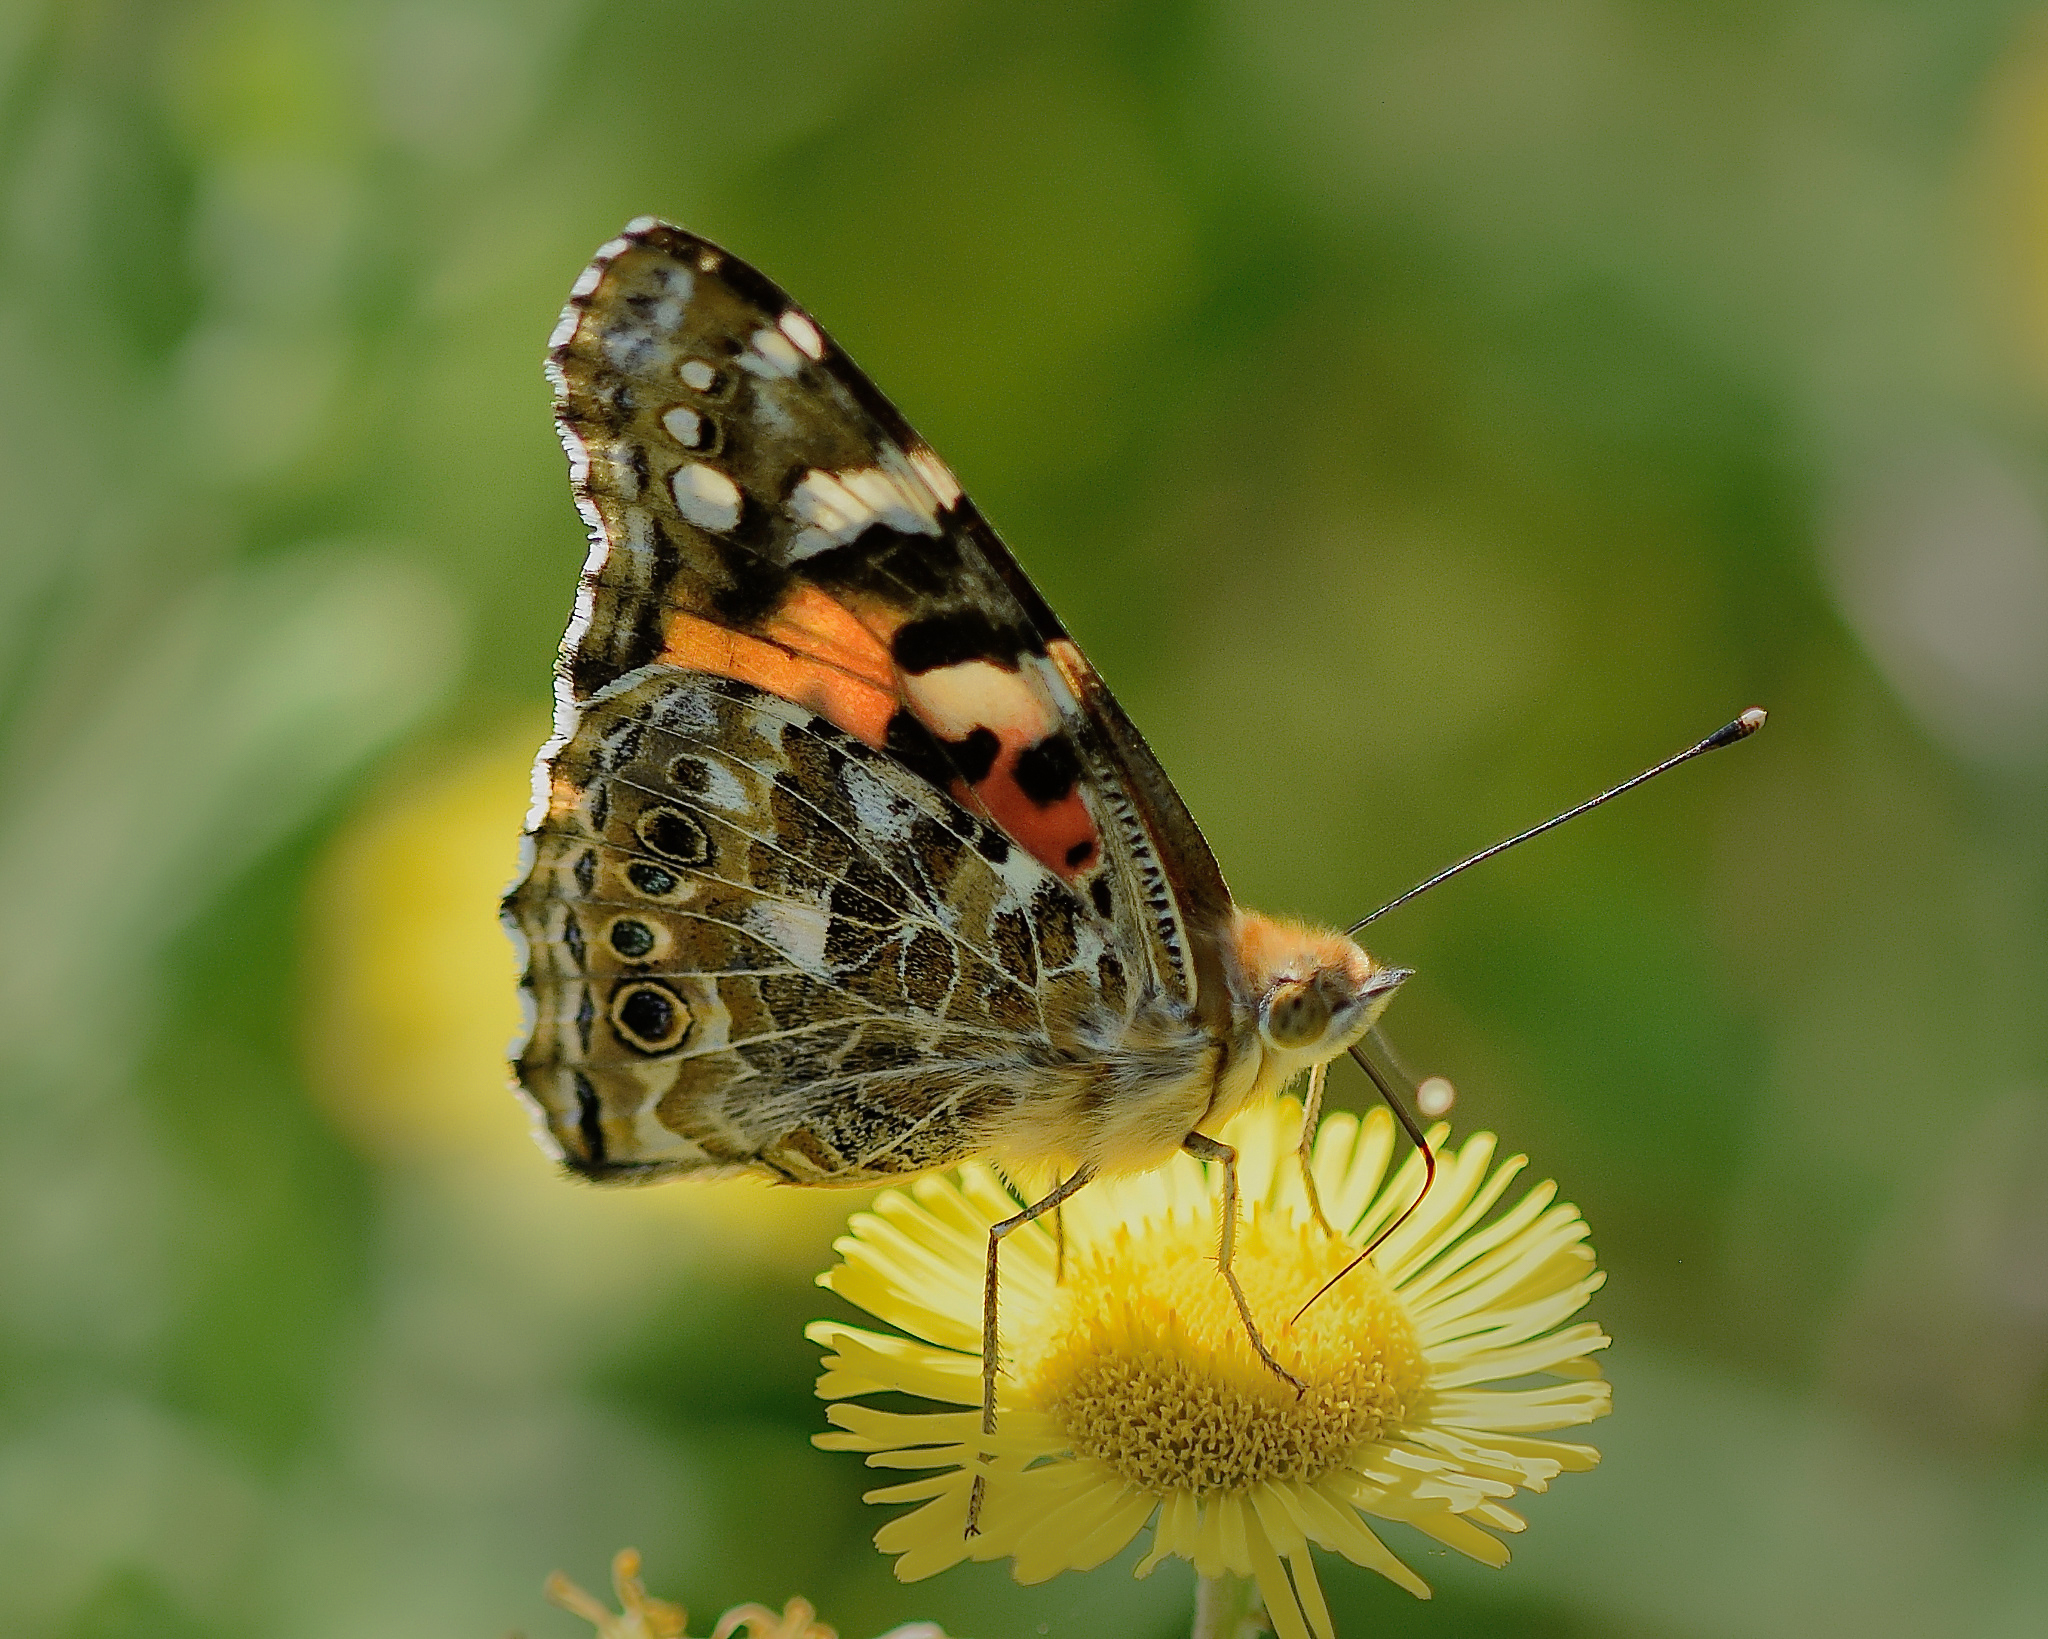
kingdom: Animalia
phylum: Arthropoda
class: Insecta
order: Lepidoptera
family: Nymphalidae
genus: Vanessa
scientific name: Vanessa cardui
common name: Painted lady
